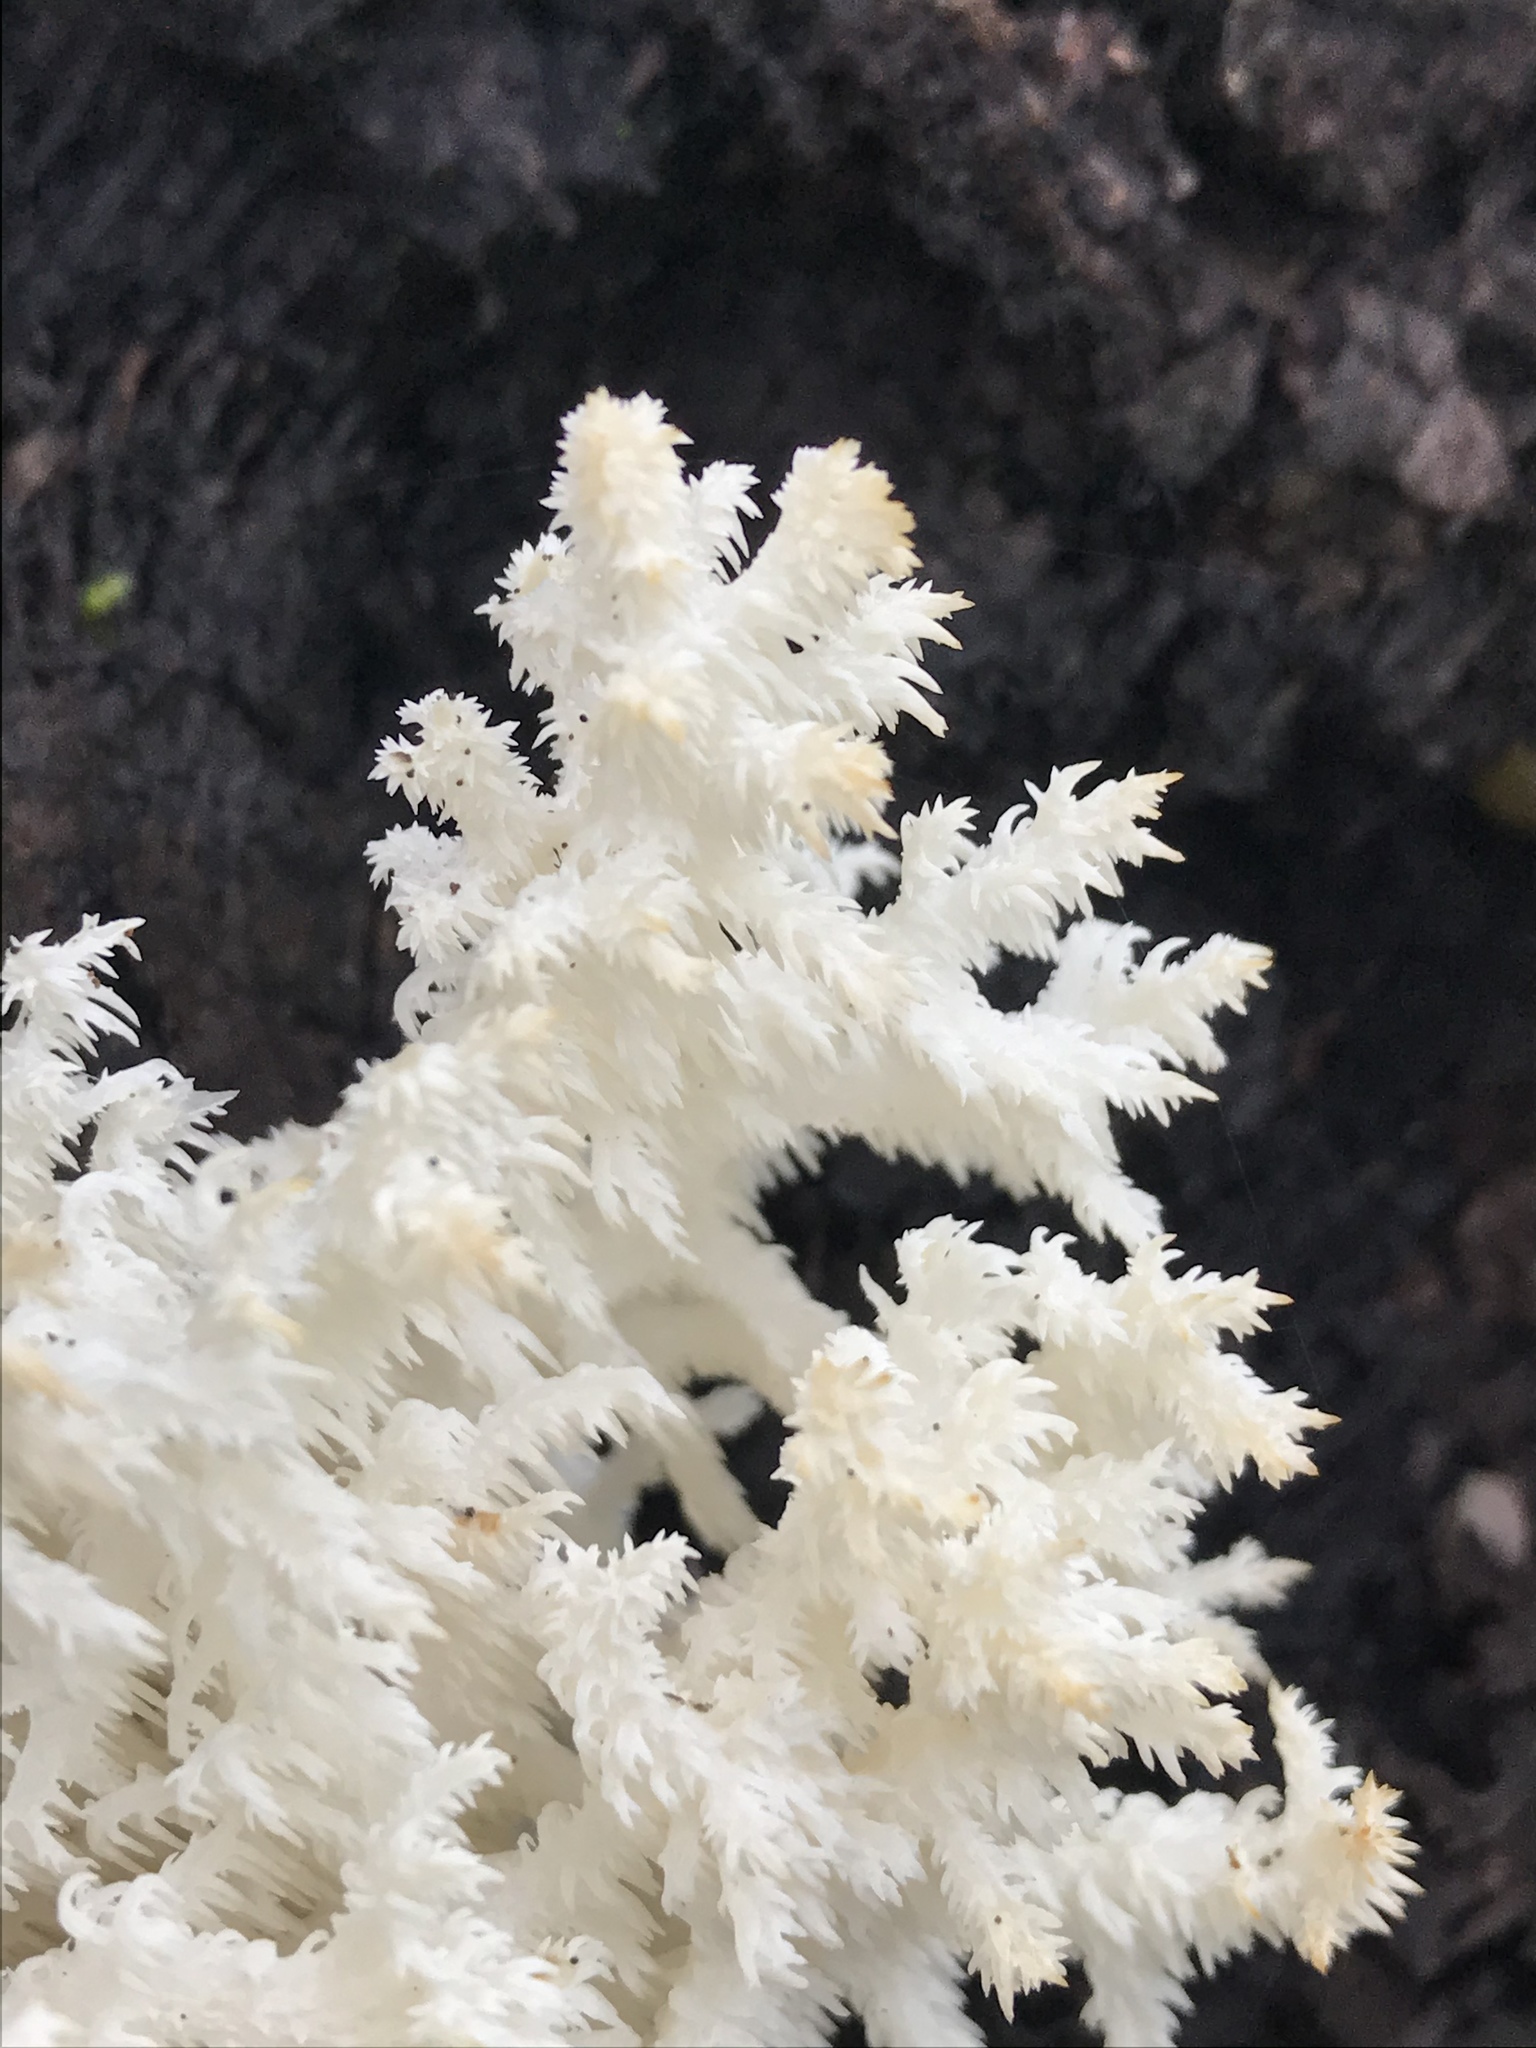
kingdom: Fungi
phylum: Basidiomycota
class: Agaricomycetes
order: Russulales
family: Hericiaceae
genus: Hericium
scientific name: Hericium coralloides
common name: Coral tooth
